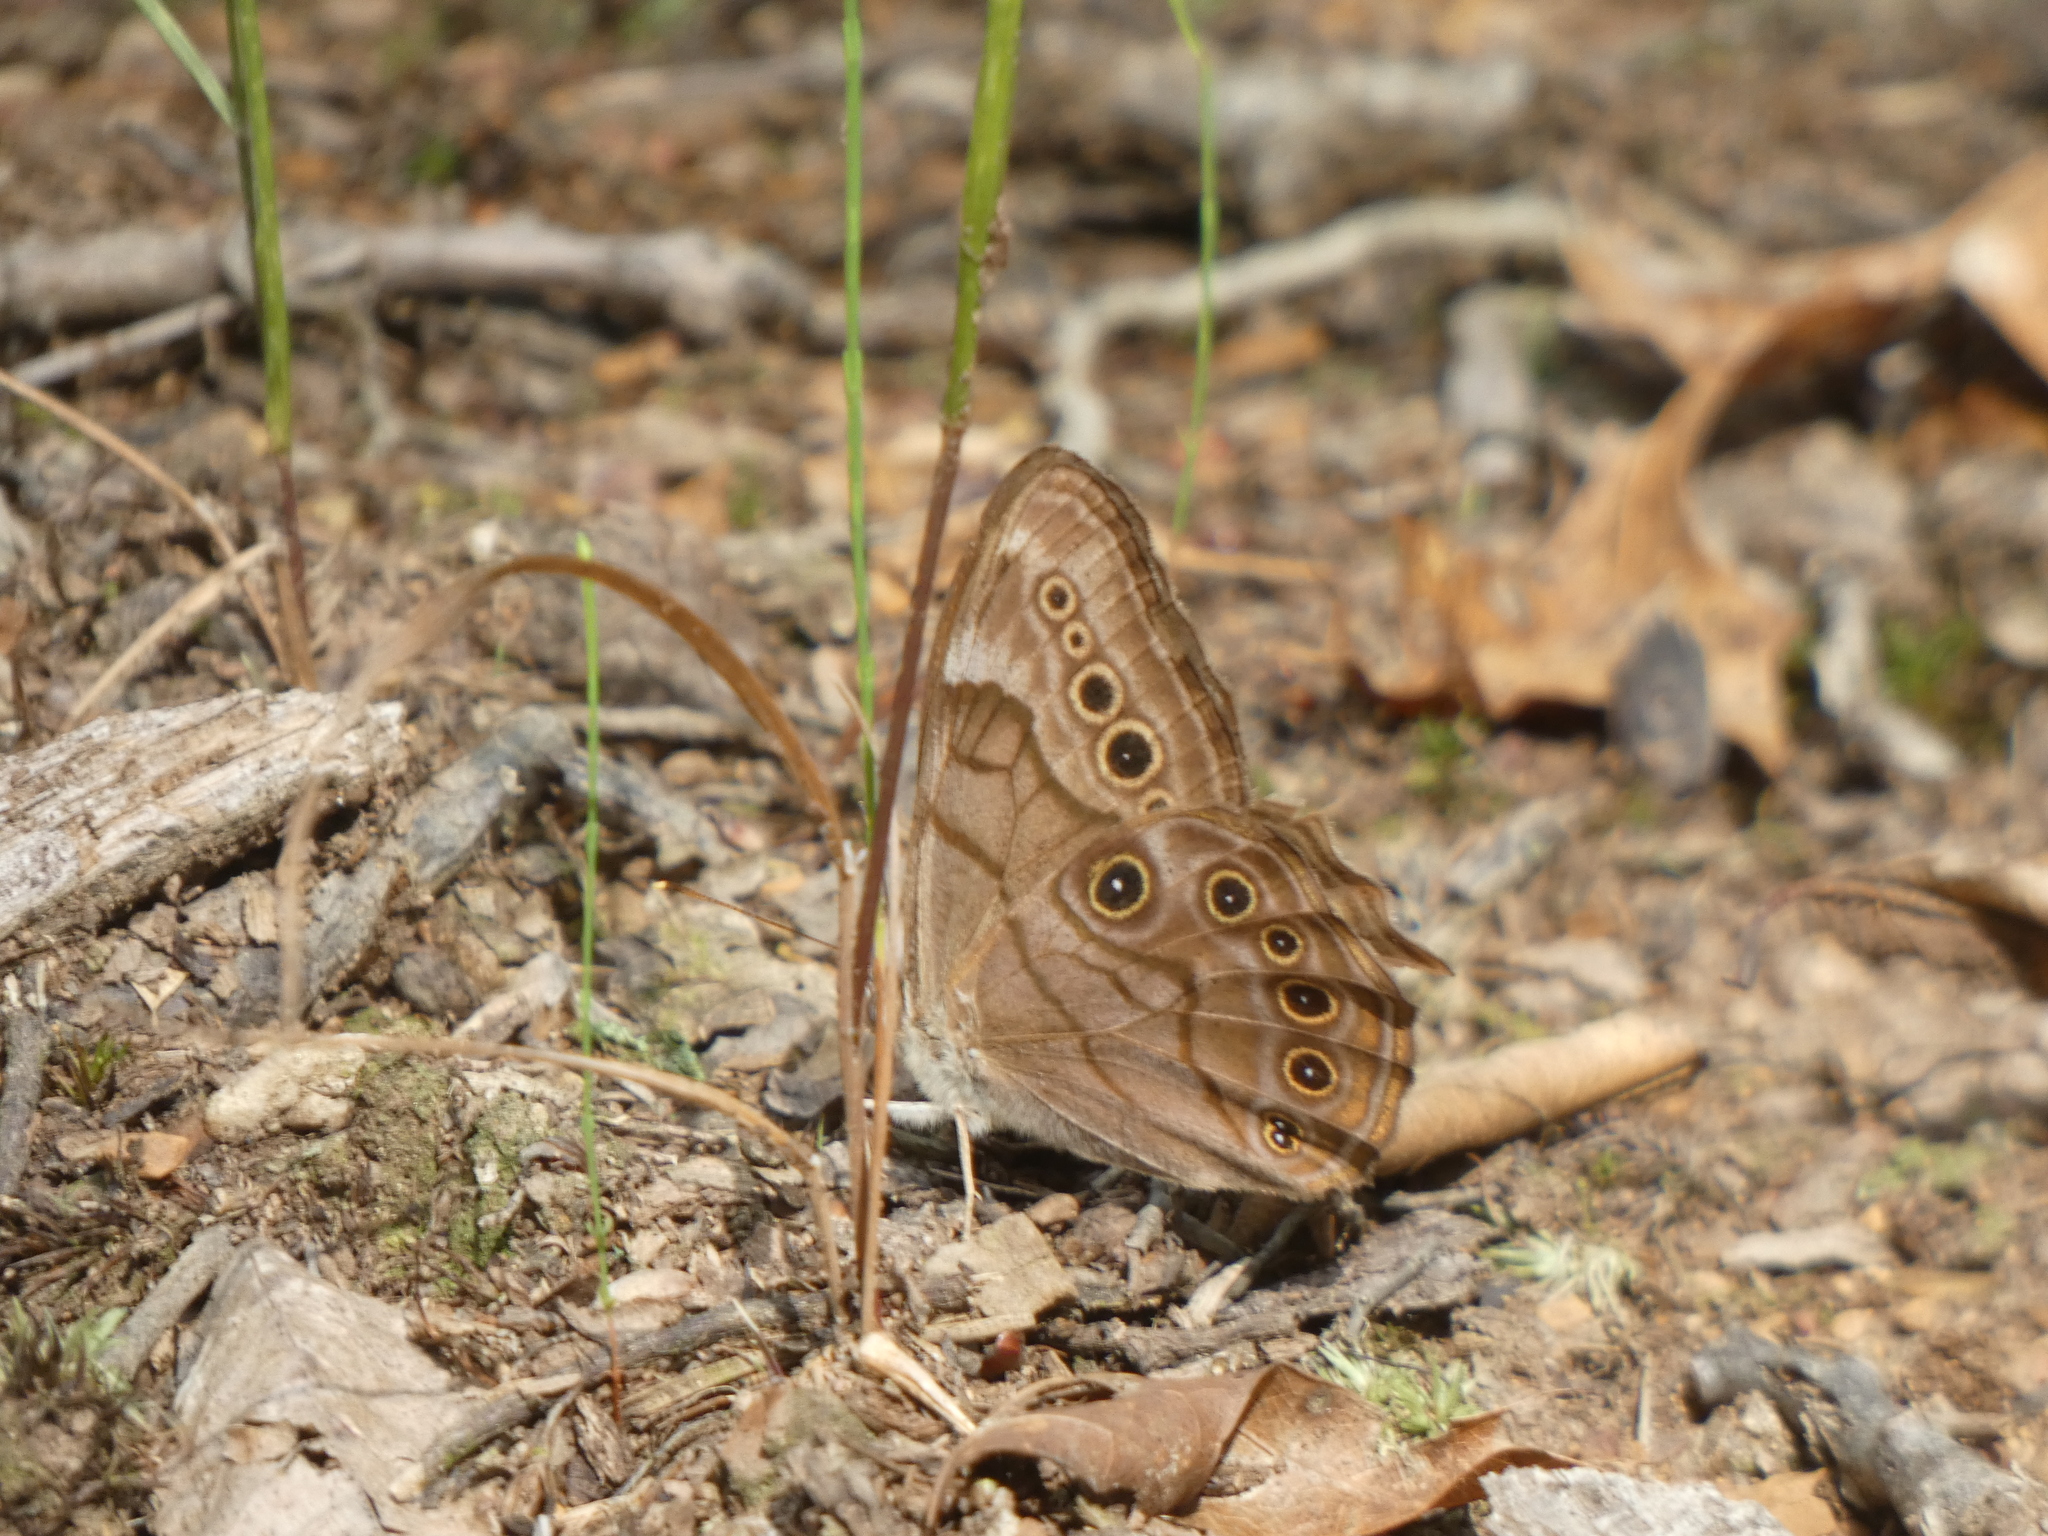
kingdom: Animalia
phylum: Arthropoda
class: Insecta
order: Lepidoptera
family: Nymphalidae
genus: Lethe
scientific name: Lethe anthedon
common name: Northern pearly-eye
